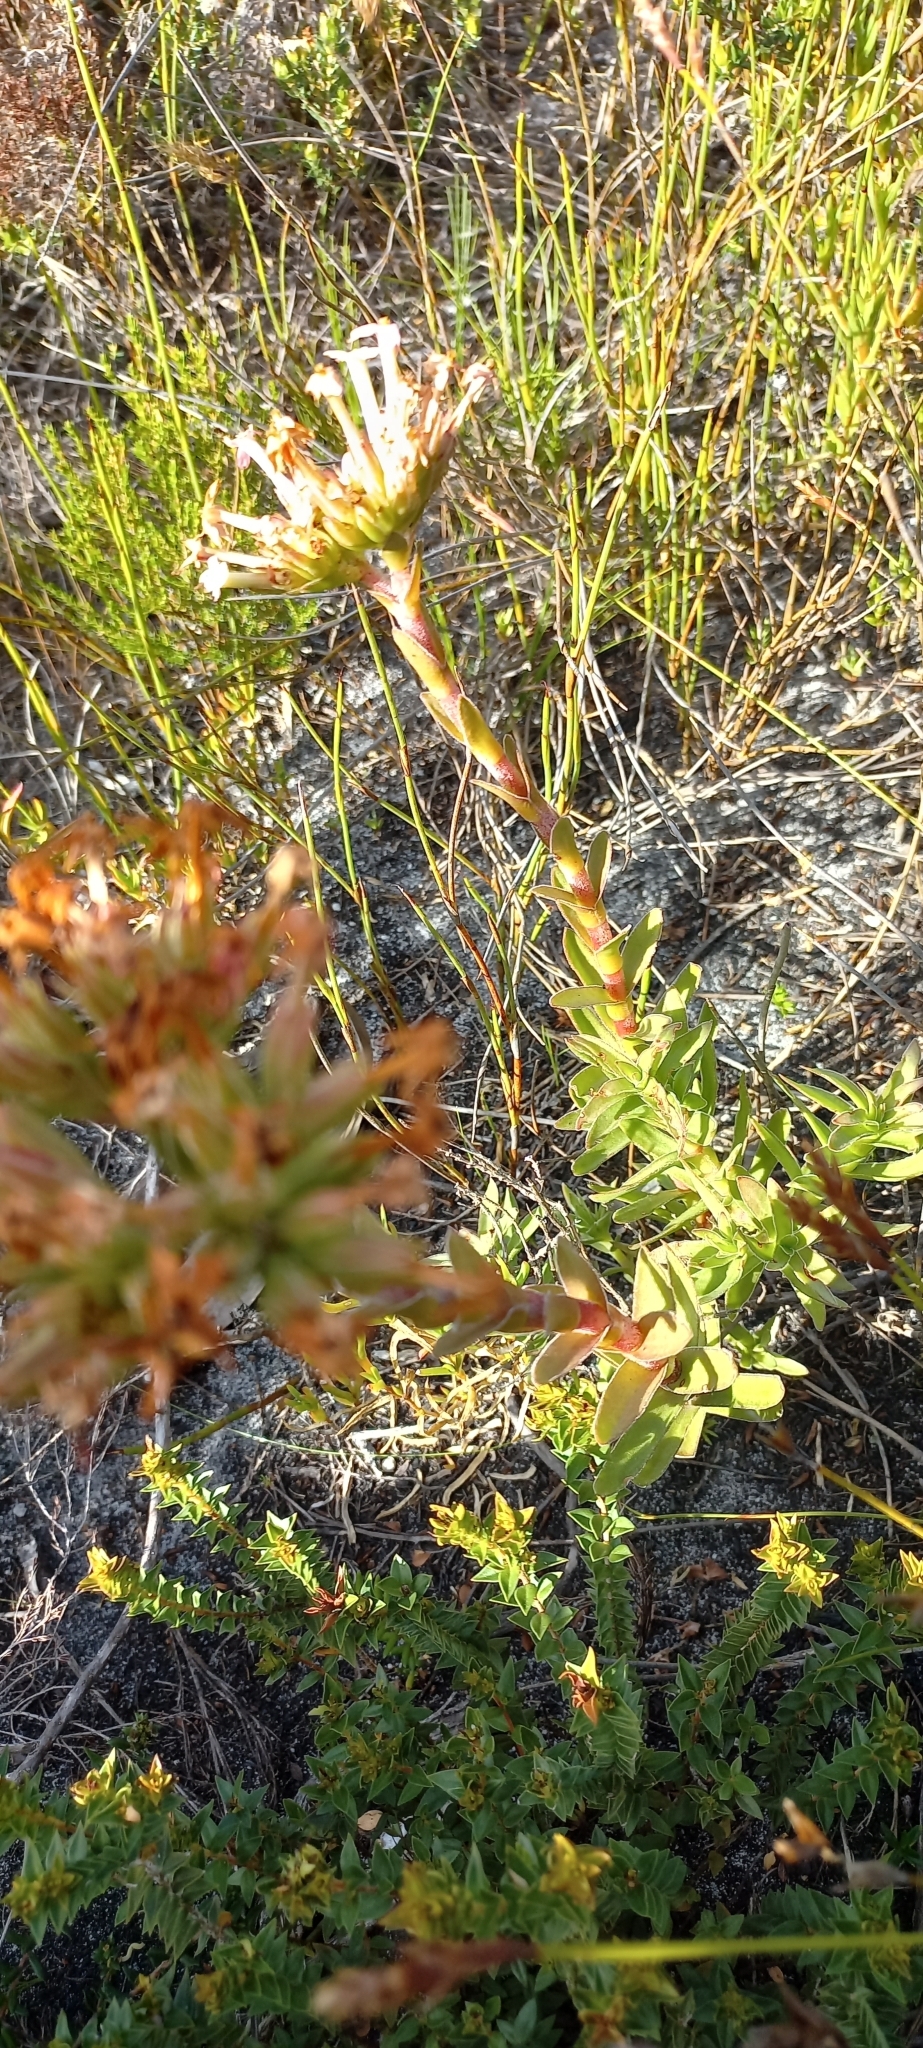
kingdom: Plantae
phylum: Tracheophyta
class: Magnoliopsida
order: Saxifragales
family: Crassulaceae
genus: Crassula
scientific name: Crassula fascicularis
